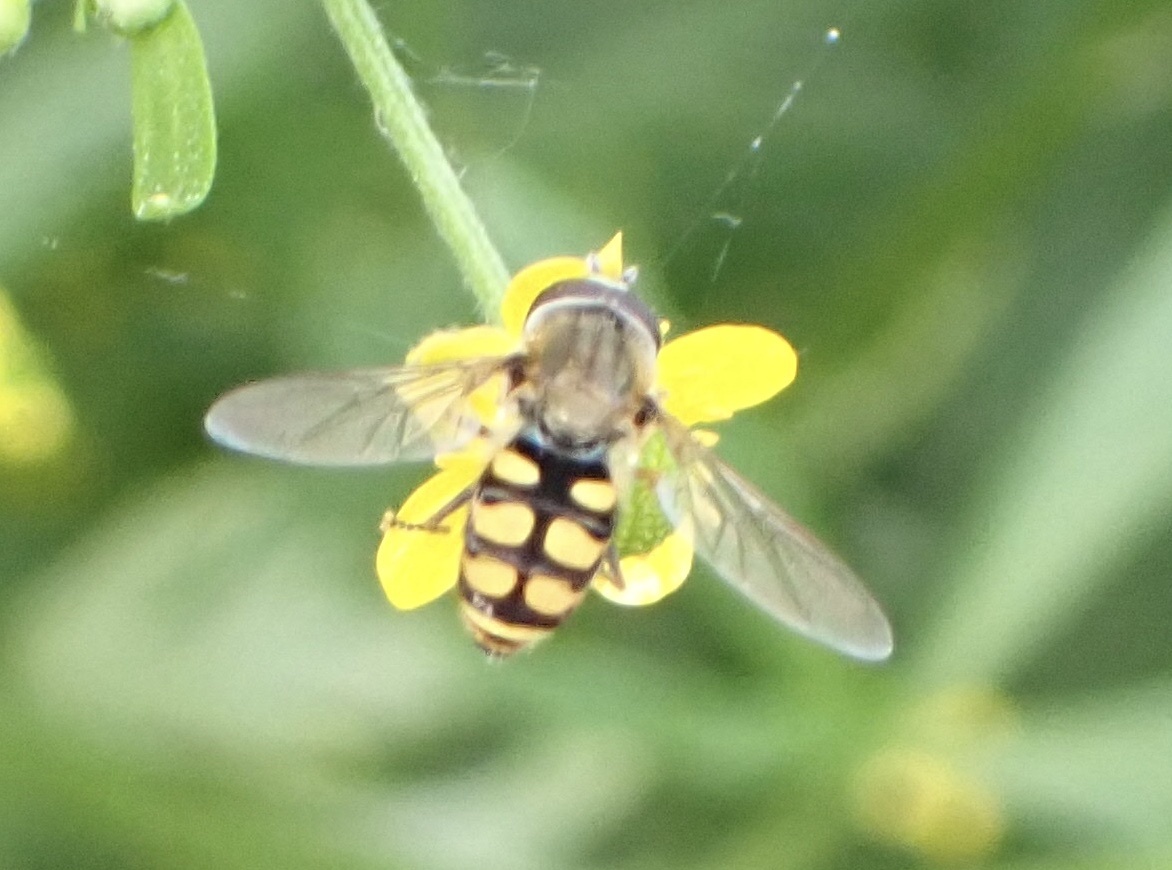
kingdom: Animalia
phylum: Arthropoda
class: Insecta
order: Diptera
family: Syrphidae
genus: Eupeodes
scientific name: Eupeodes corollae
